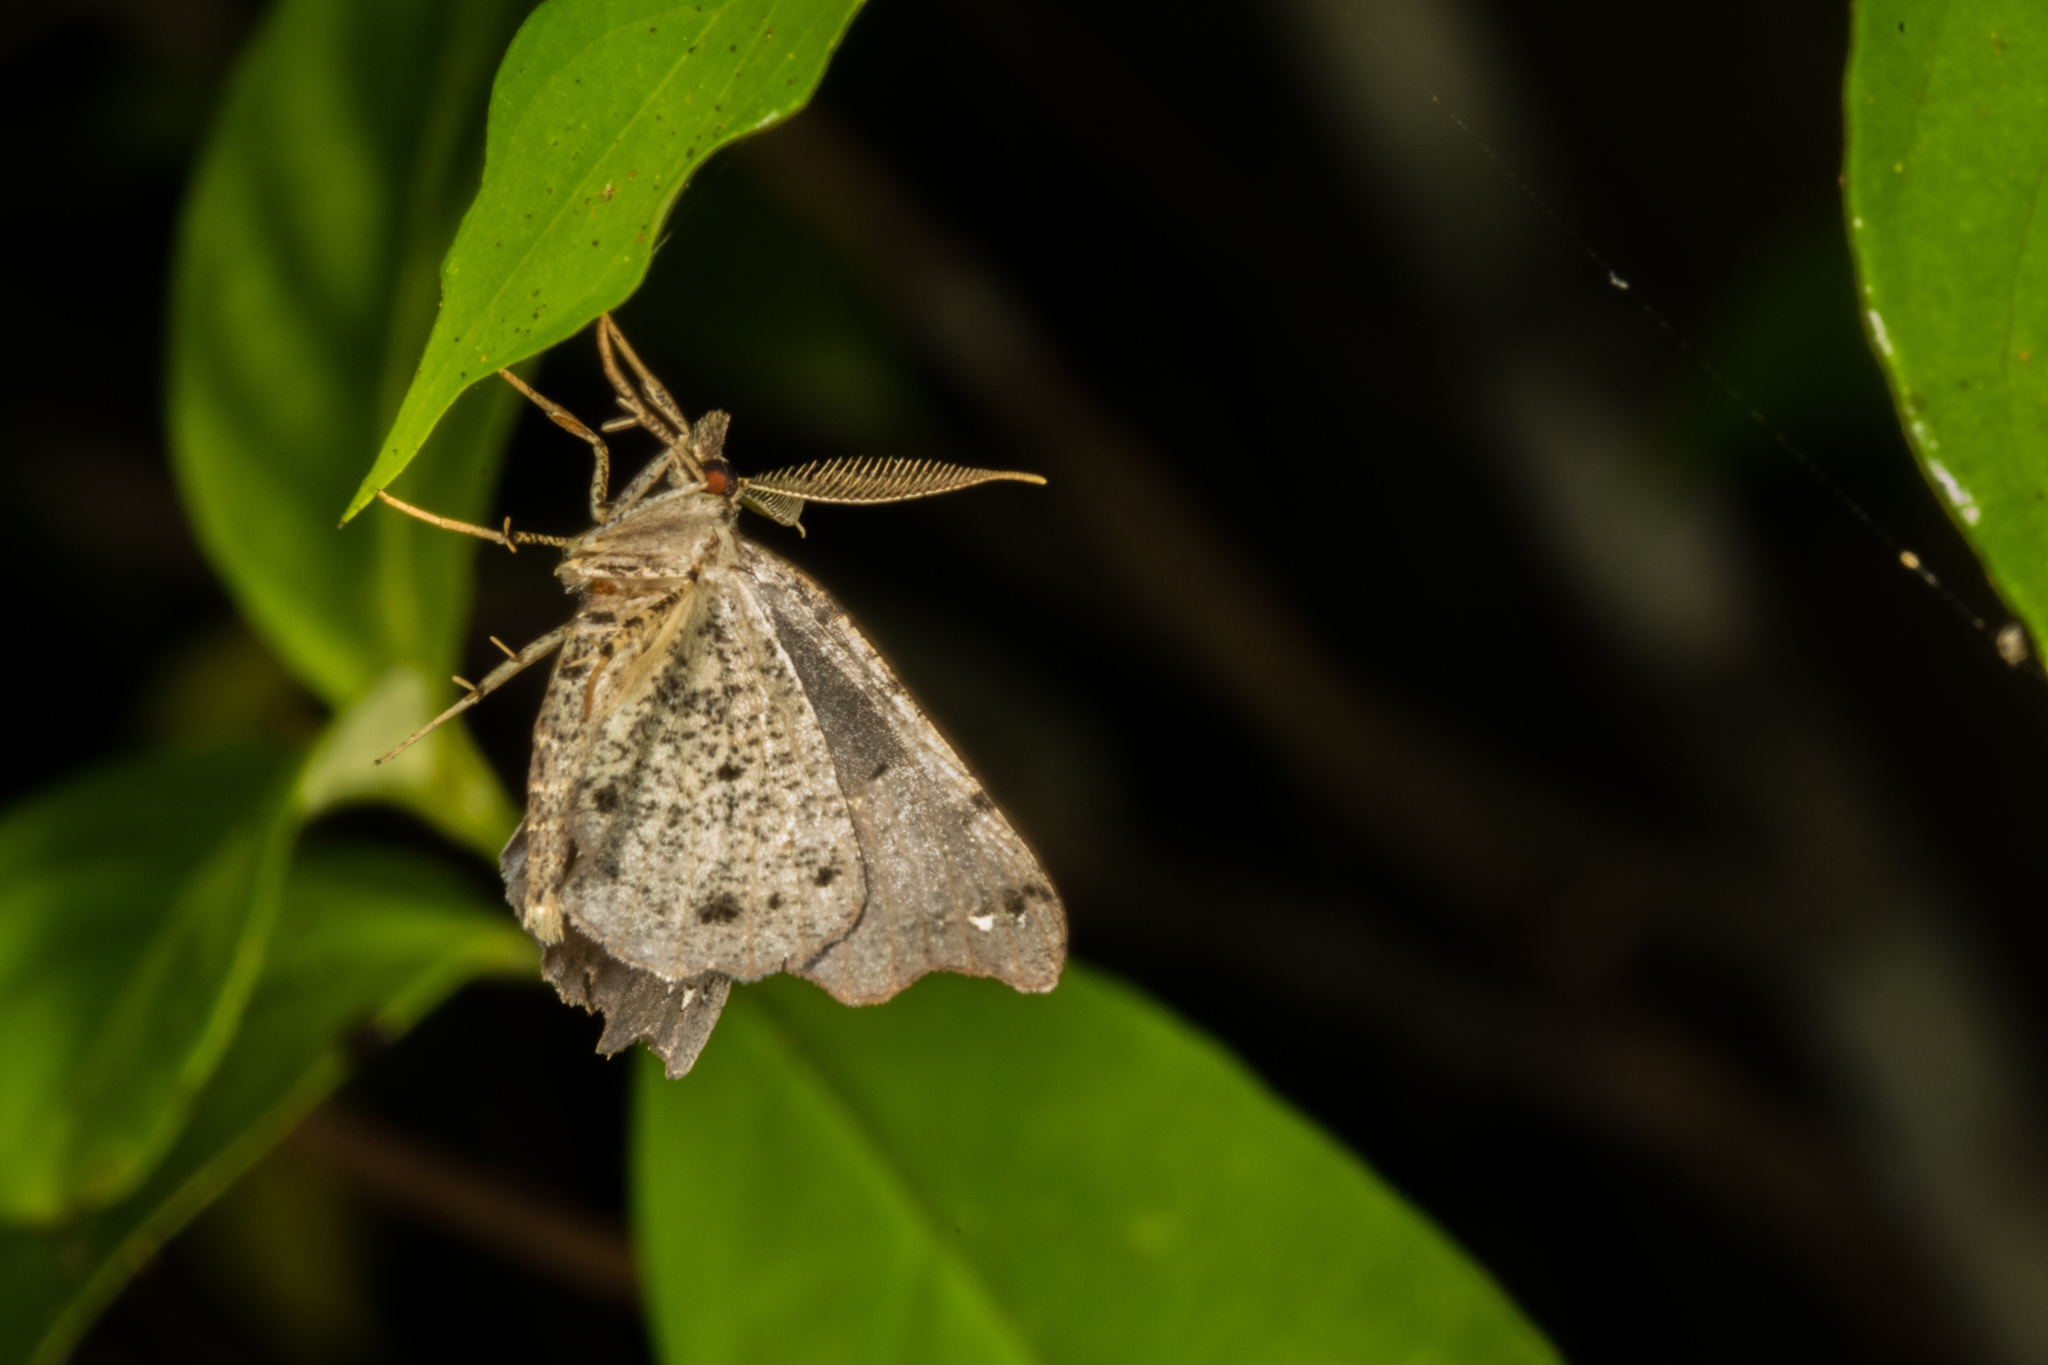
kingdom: Animalia
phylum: Arthropoda
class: Insecta
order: Lepidoptera
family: Geometridae
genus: Chalastra
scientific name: Chalastra pellurgata
